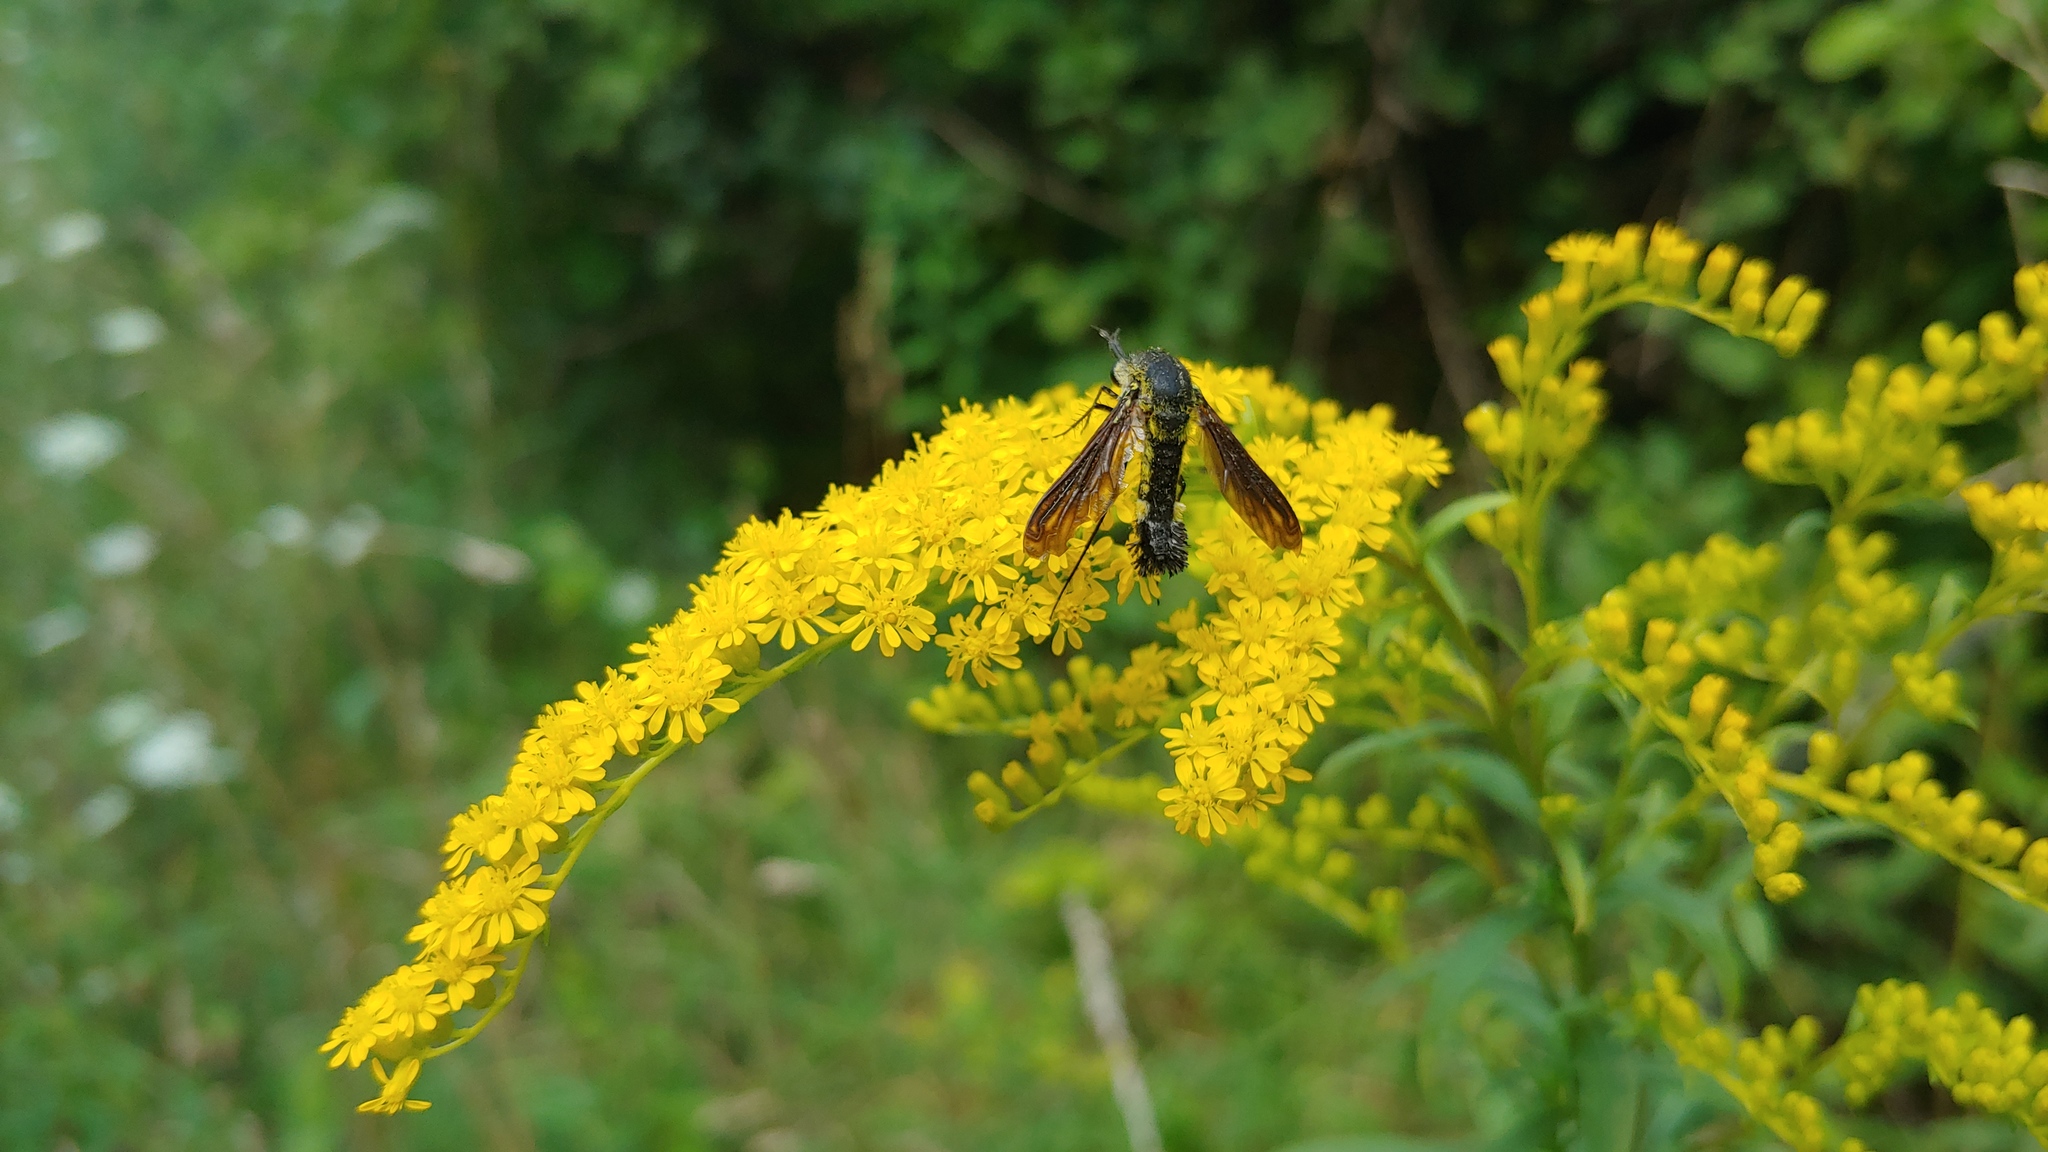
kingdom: Animalia
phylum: Arthropoda
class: Insecta
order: Diptera
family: Bombyliidae
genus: Lepidophora
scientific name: Lepidophora lutea
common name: Hunchback bee fly
